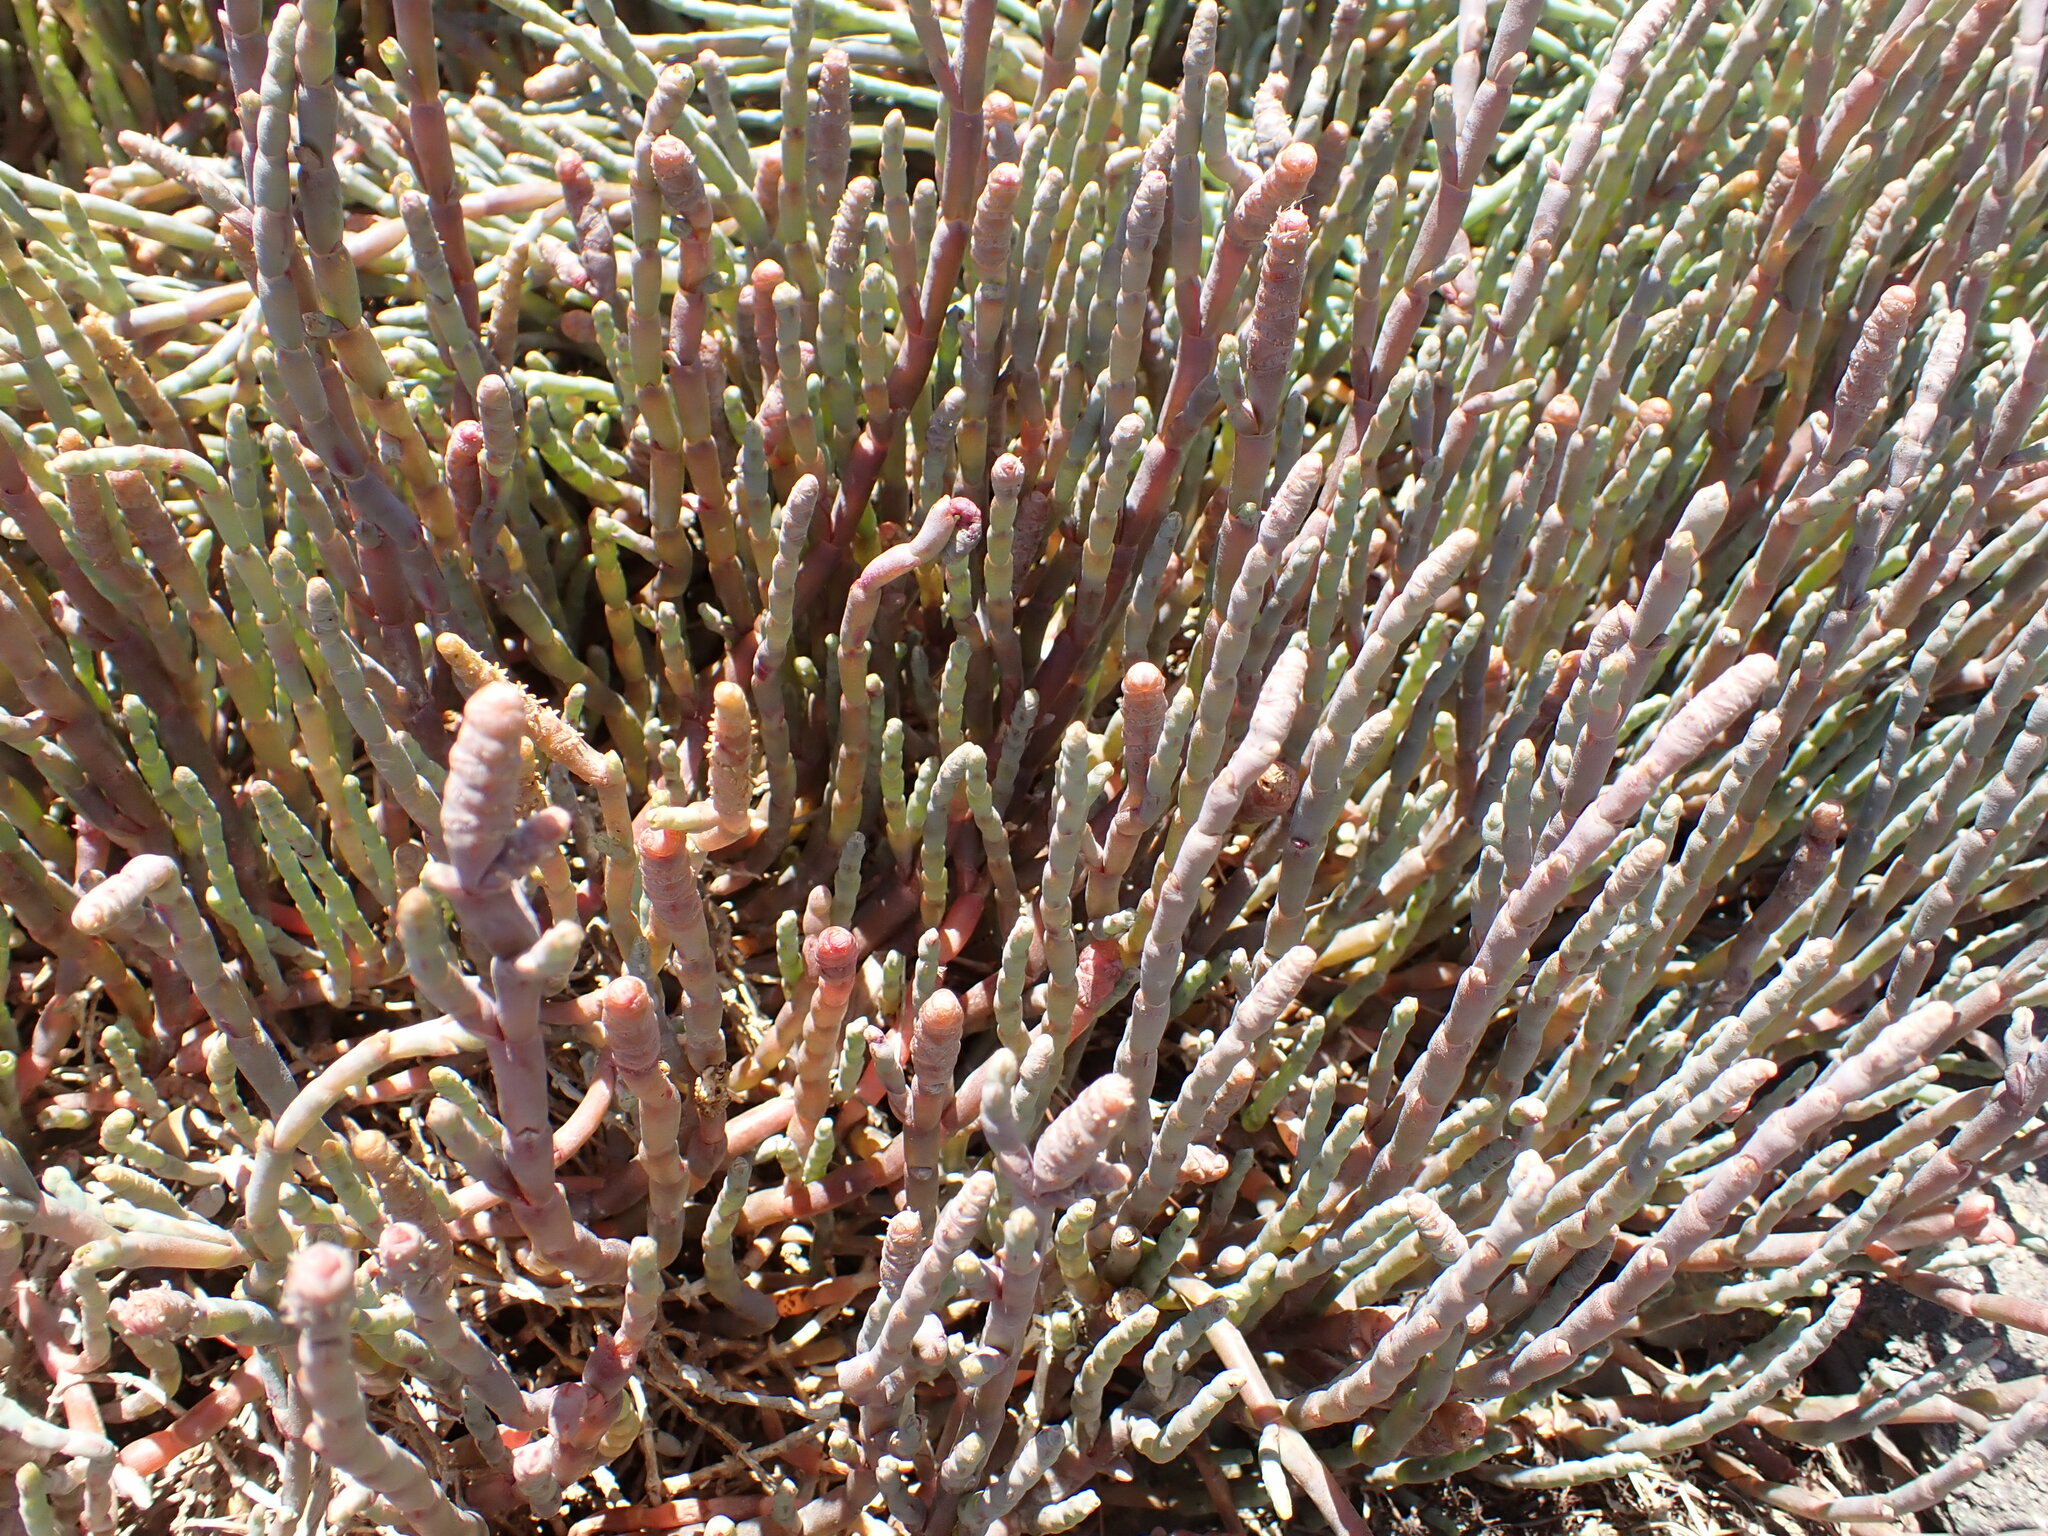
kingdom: Plantae
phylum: Tracheophyta
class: Magnoliopsida
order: Caryophyllales
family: Amaranthaceae
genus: Salicornia
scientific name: Salicornia quinqueflora
